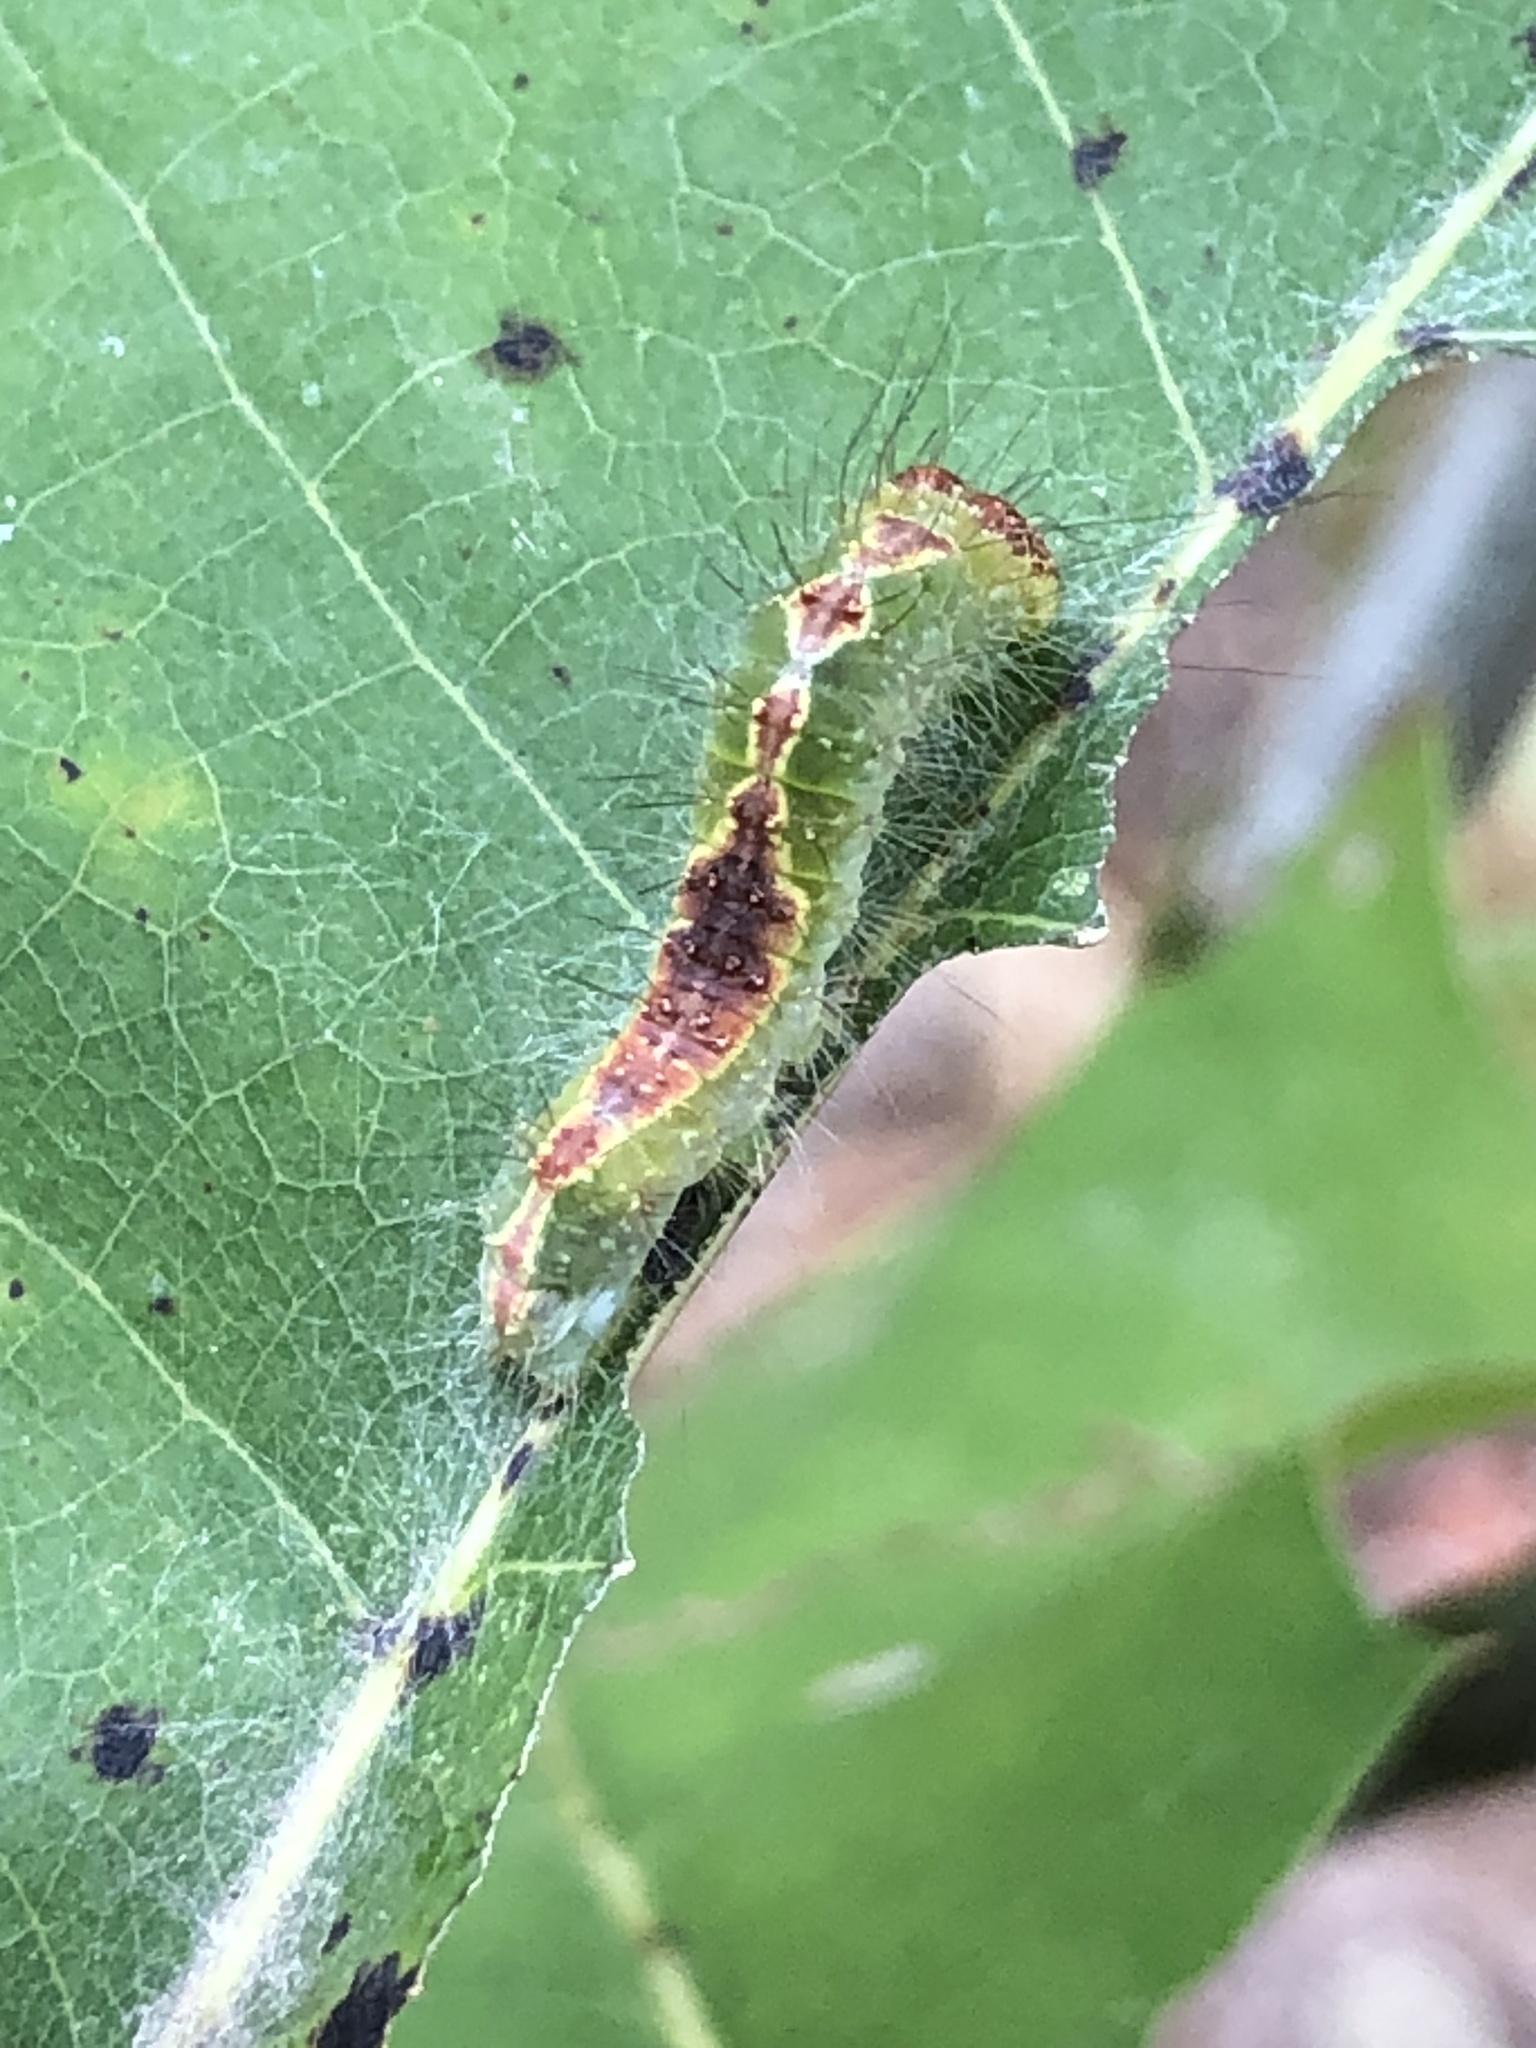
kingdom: Animalia
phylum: Arthropoda
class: Insecta
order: Lepidoptera
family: Noctuidae
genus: Acronicta
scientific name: Acronicta lithospila
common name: Streaked dagger
